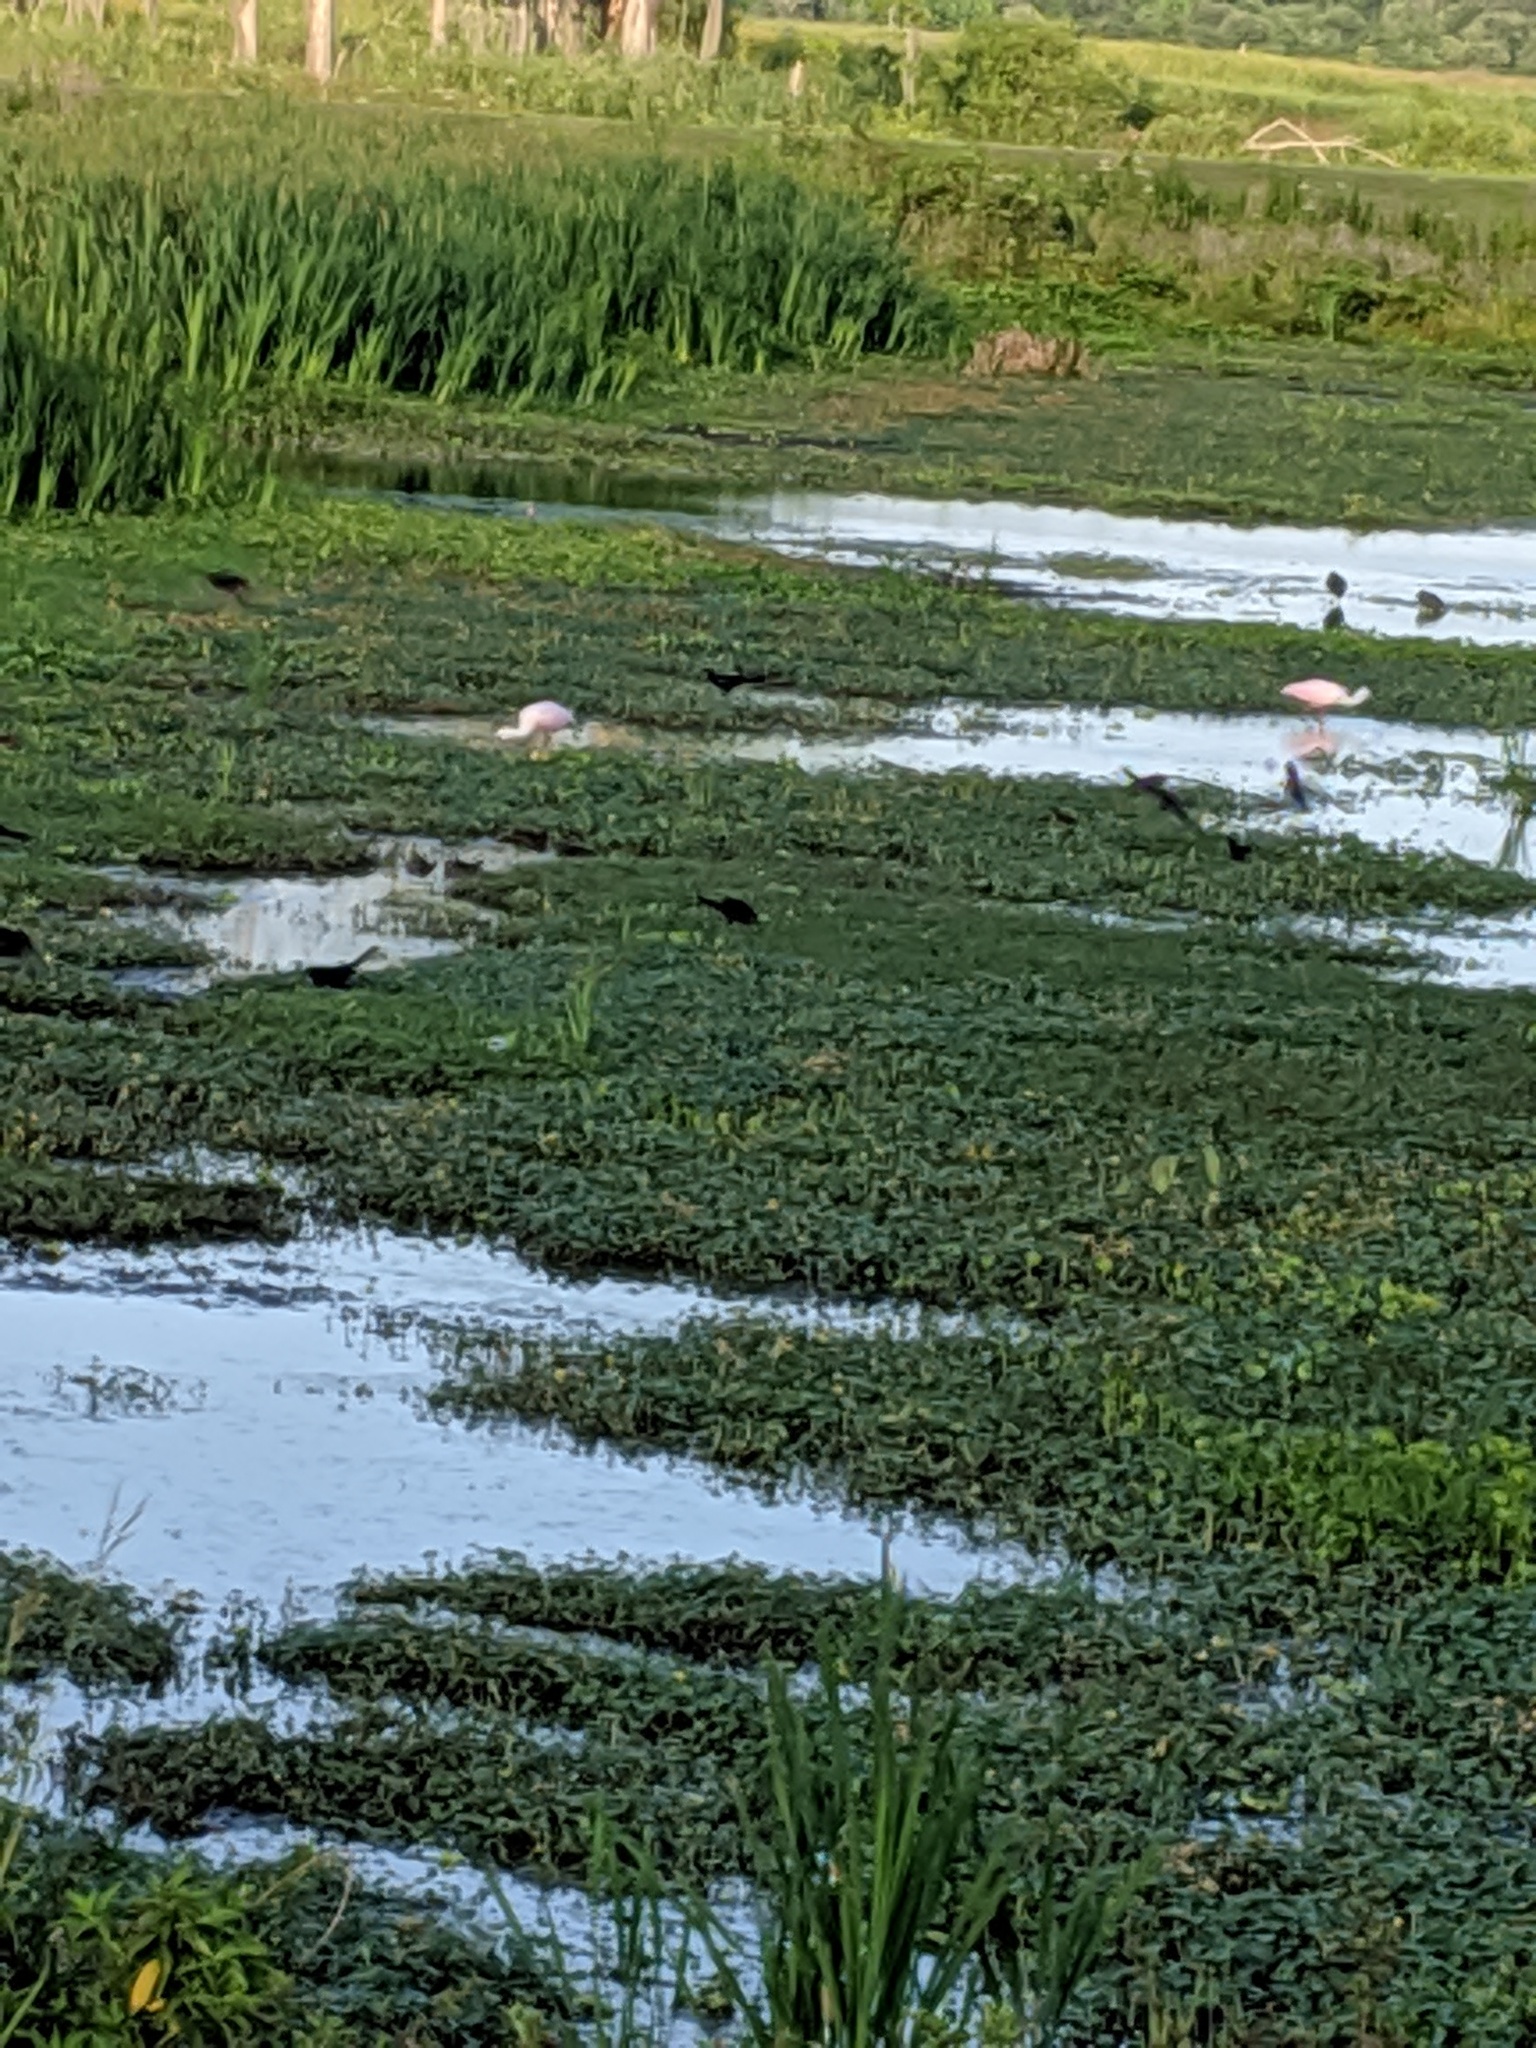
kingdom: Animalia
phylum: Chordata
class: Aves
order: Pelecaniformes
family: Threskiornithidae
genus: Platalea
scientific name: Platalea ajaja
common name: Roseate spoonbill
